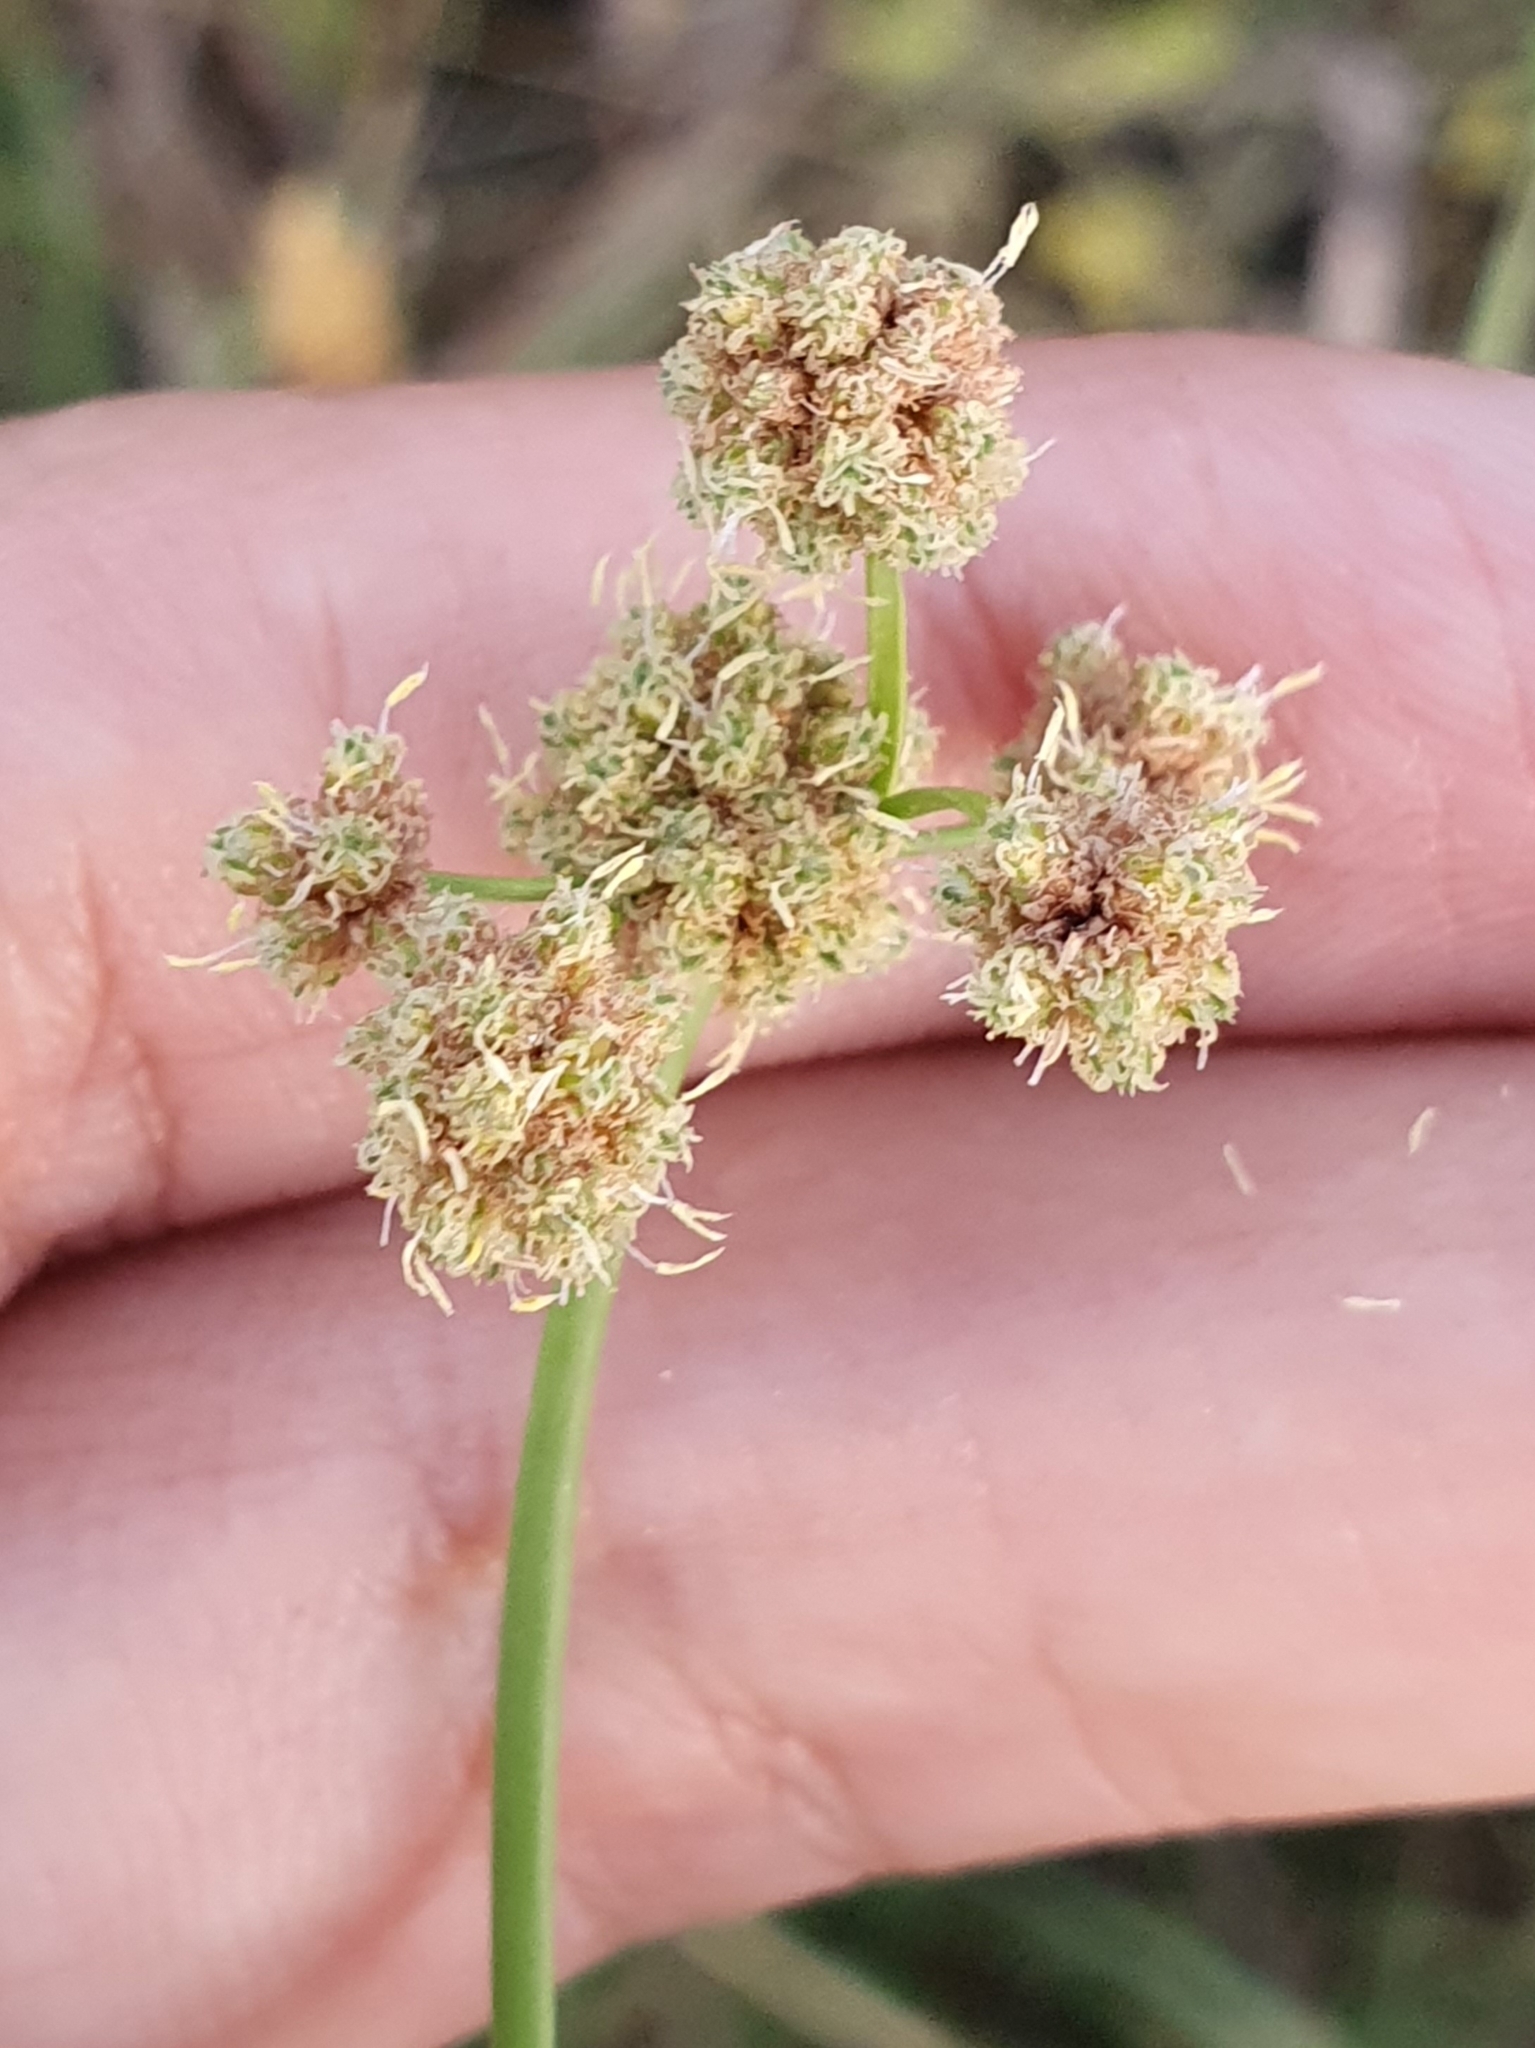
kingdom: Plantae
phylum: Tracheophyta
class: Liliopsida
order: Poales
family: Cyperaceae
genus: Scirpoides
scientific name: Scirpoides holoschoenus
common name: Round-headed club-rush
